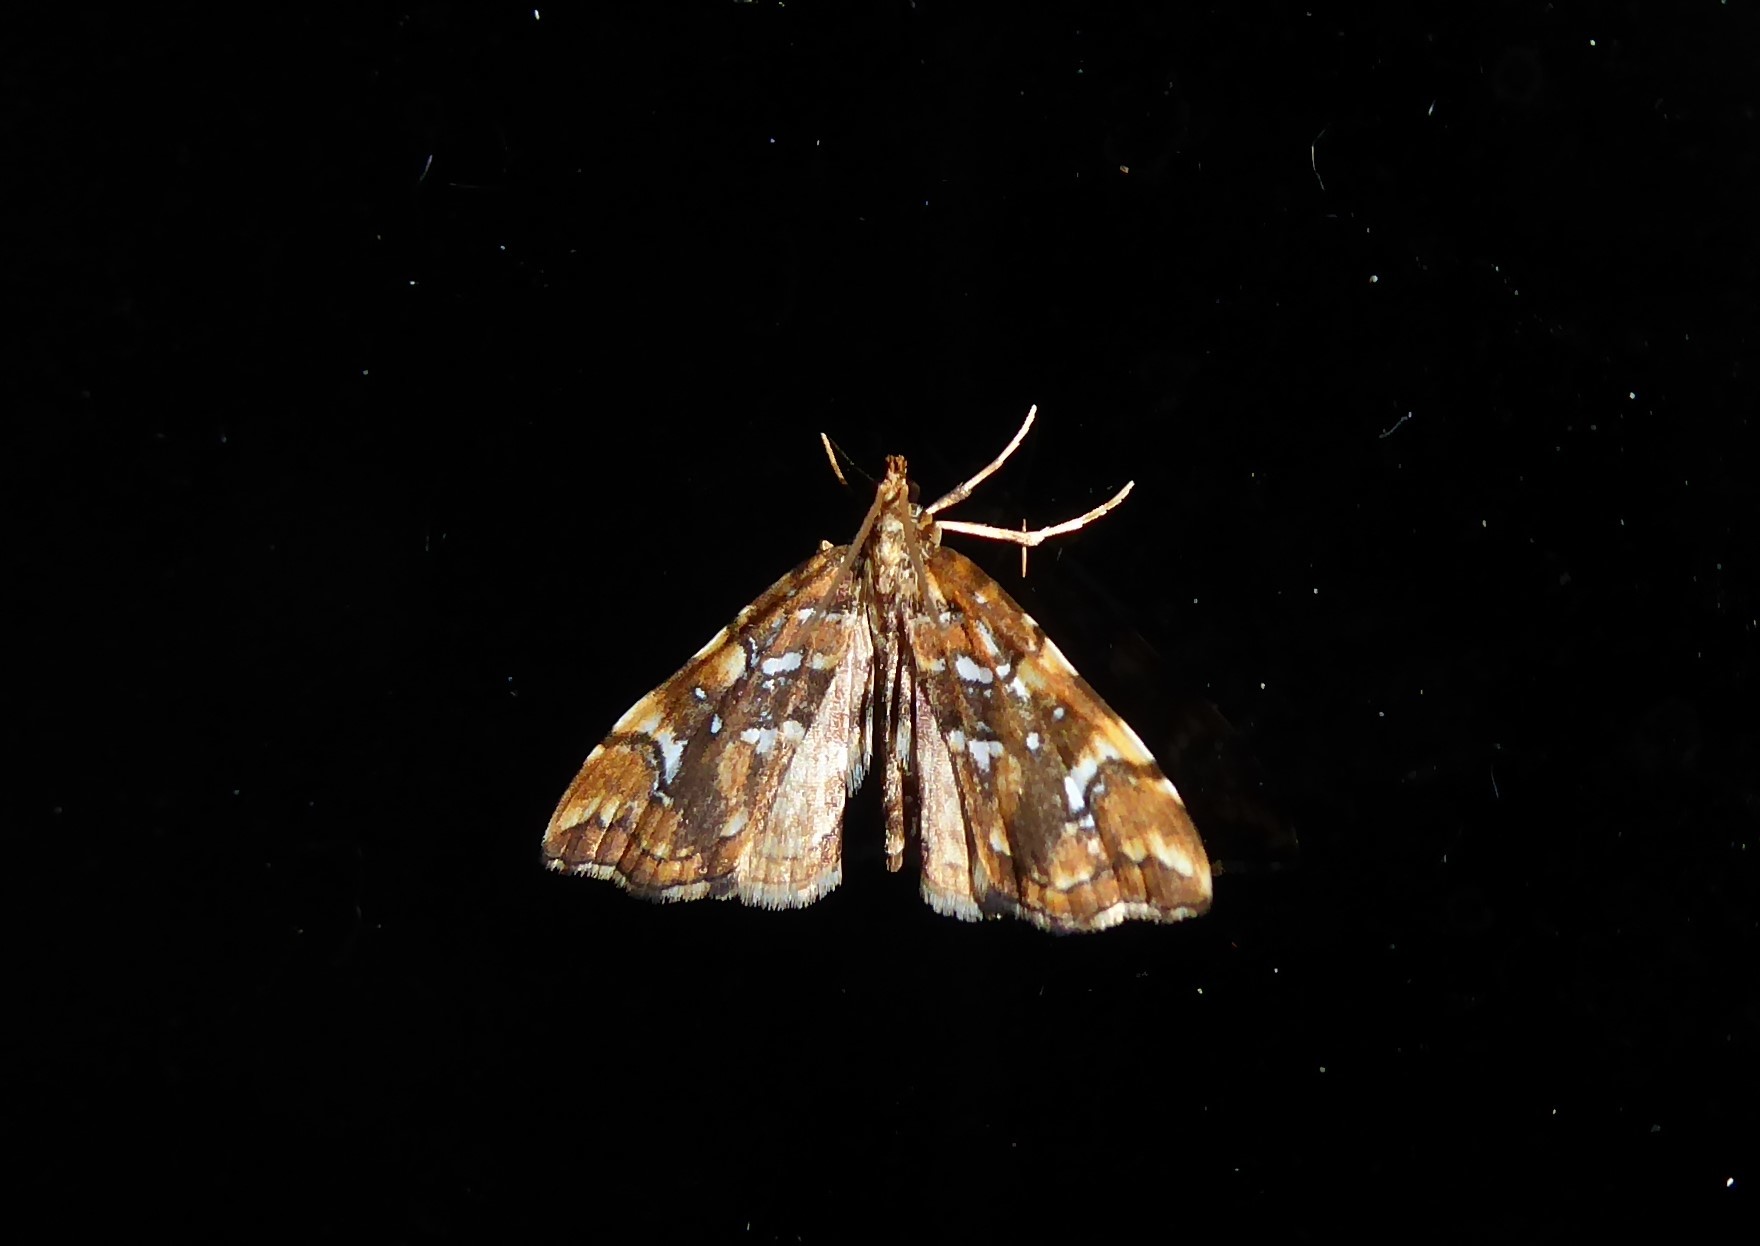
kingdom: Animalia
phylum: Arthropoda
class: Insecta
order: Lepidoptera
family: Pyralidae
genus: Musotima
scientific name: Musotima nitidalis
